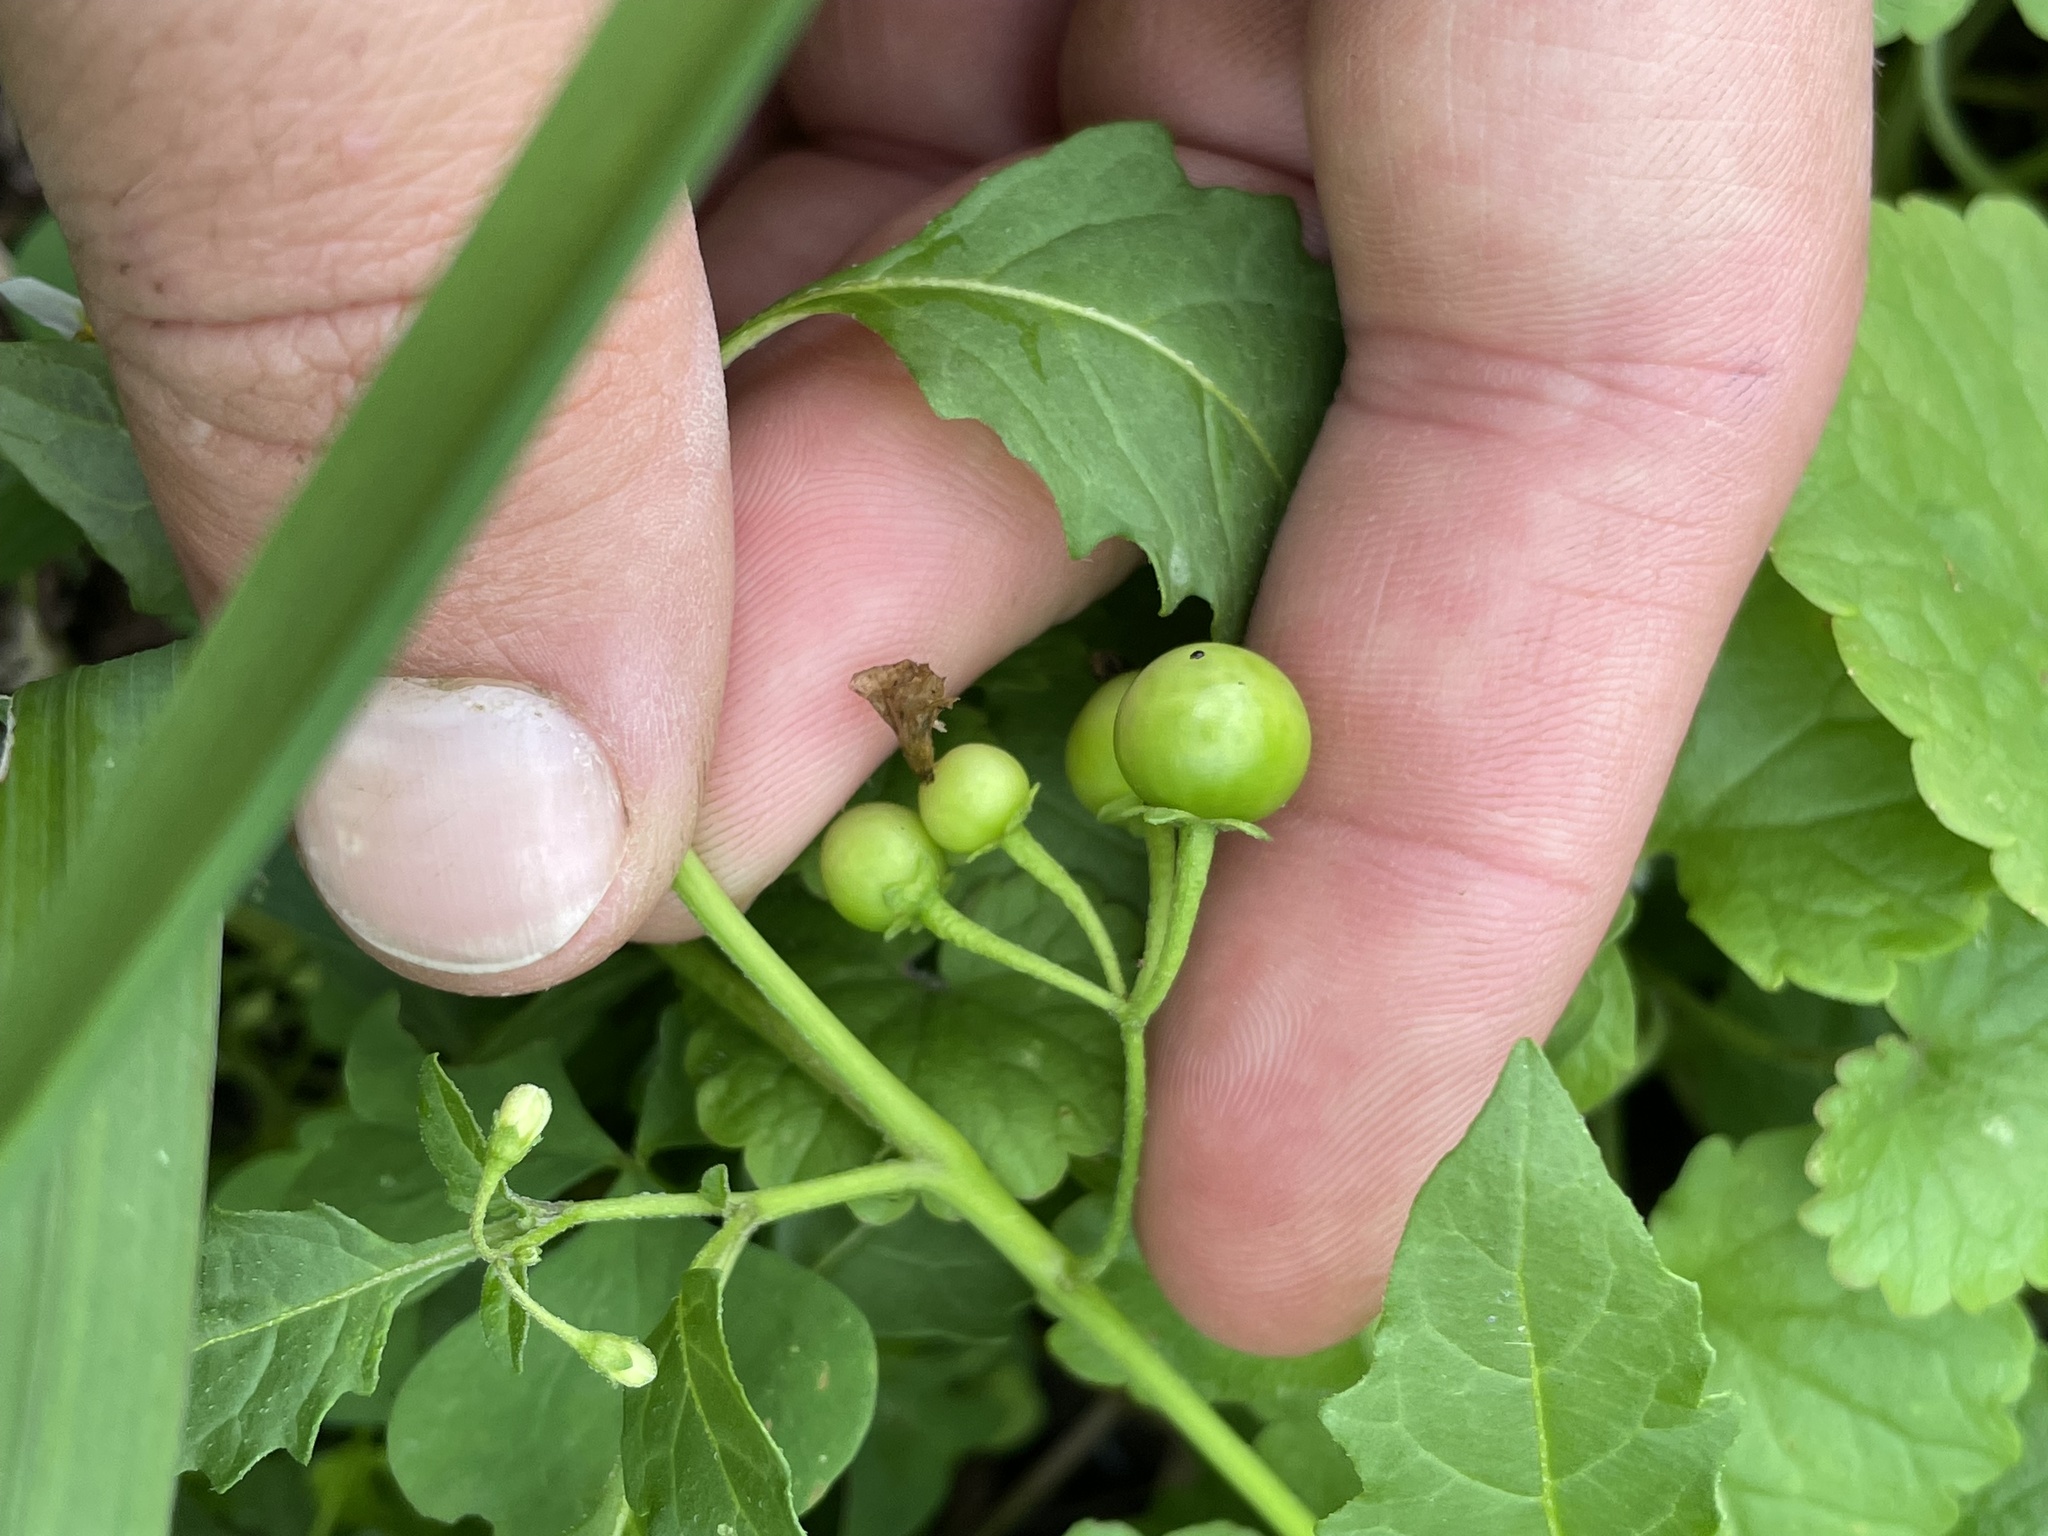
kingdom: Plantae
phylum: Tracheophyta
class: Magnoliopsida
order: Solanales
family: Solanaceae
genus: Solanum
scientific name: Solanum emulans
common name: Eastern black nightshade
